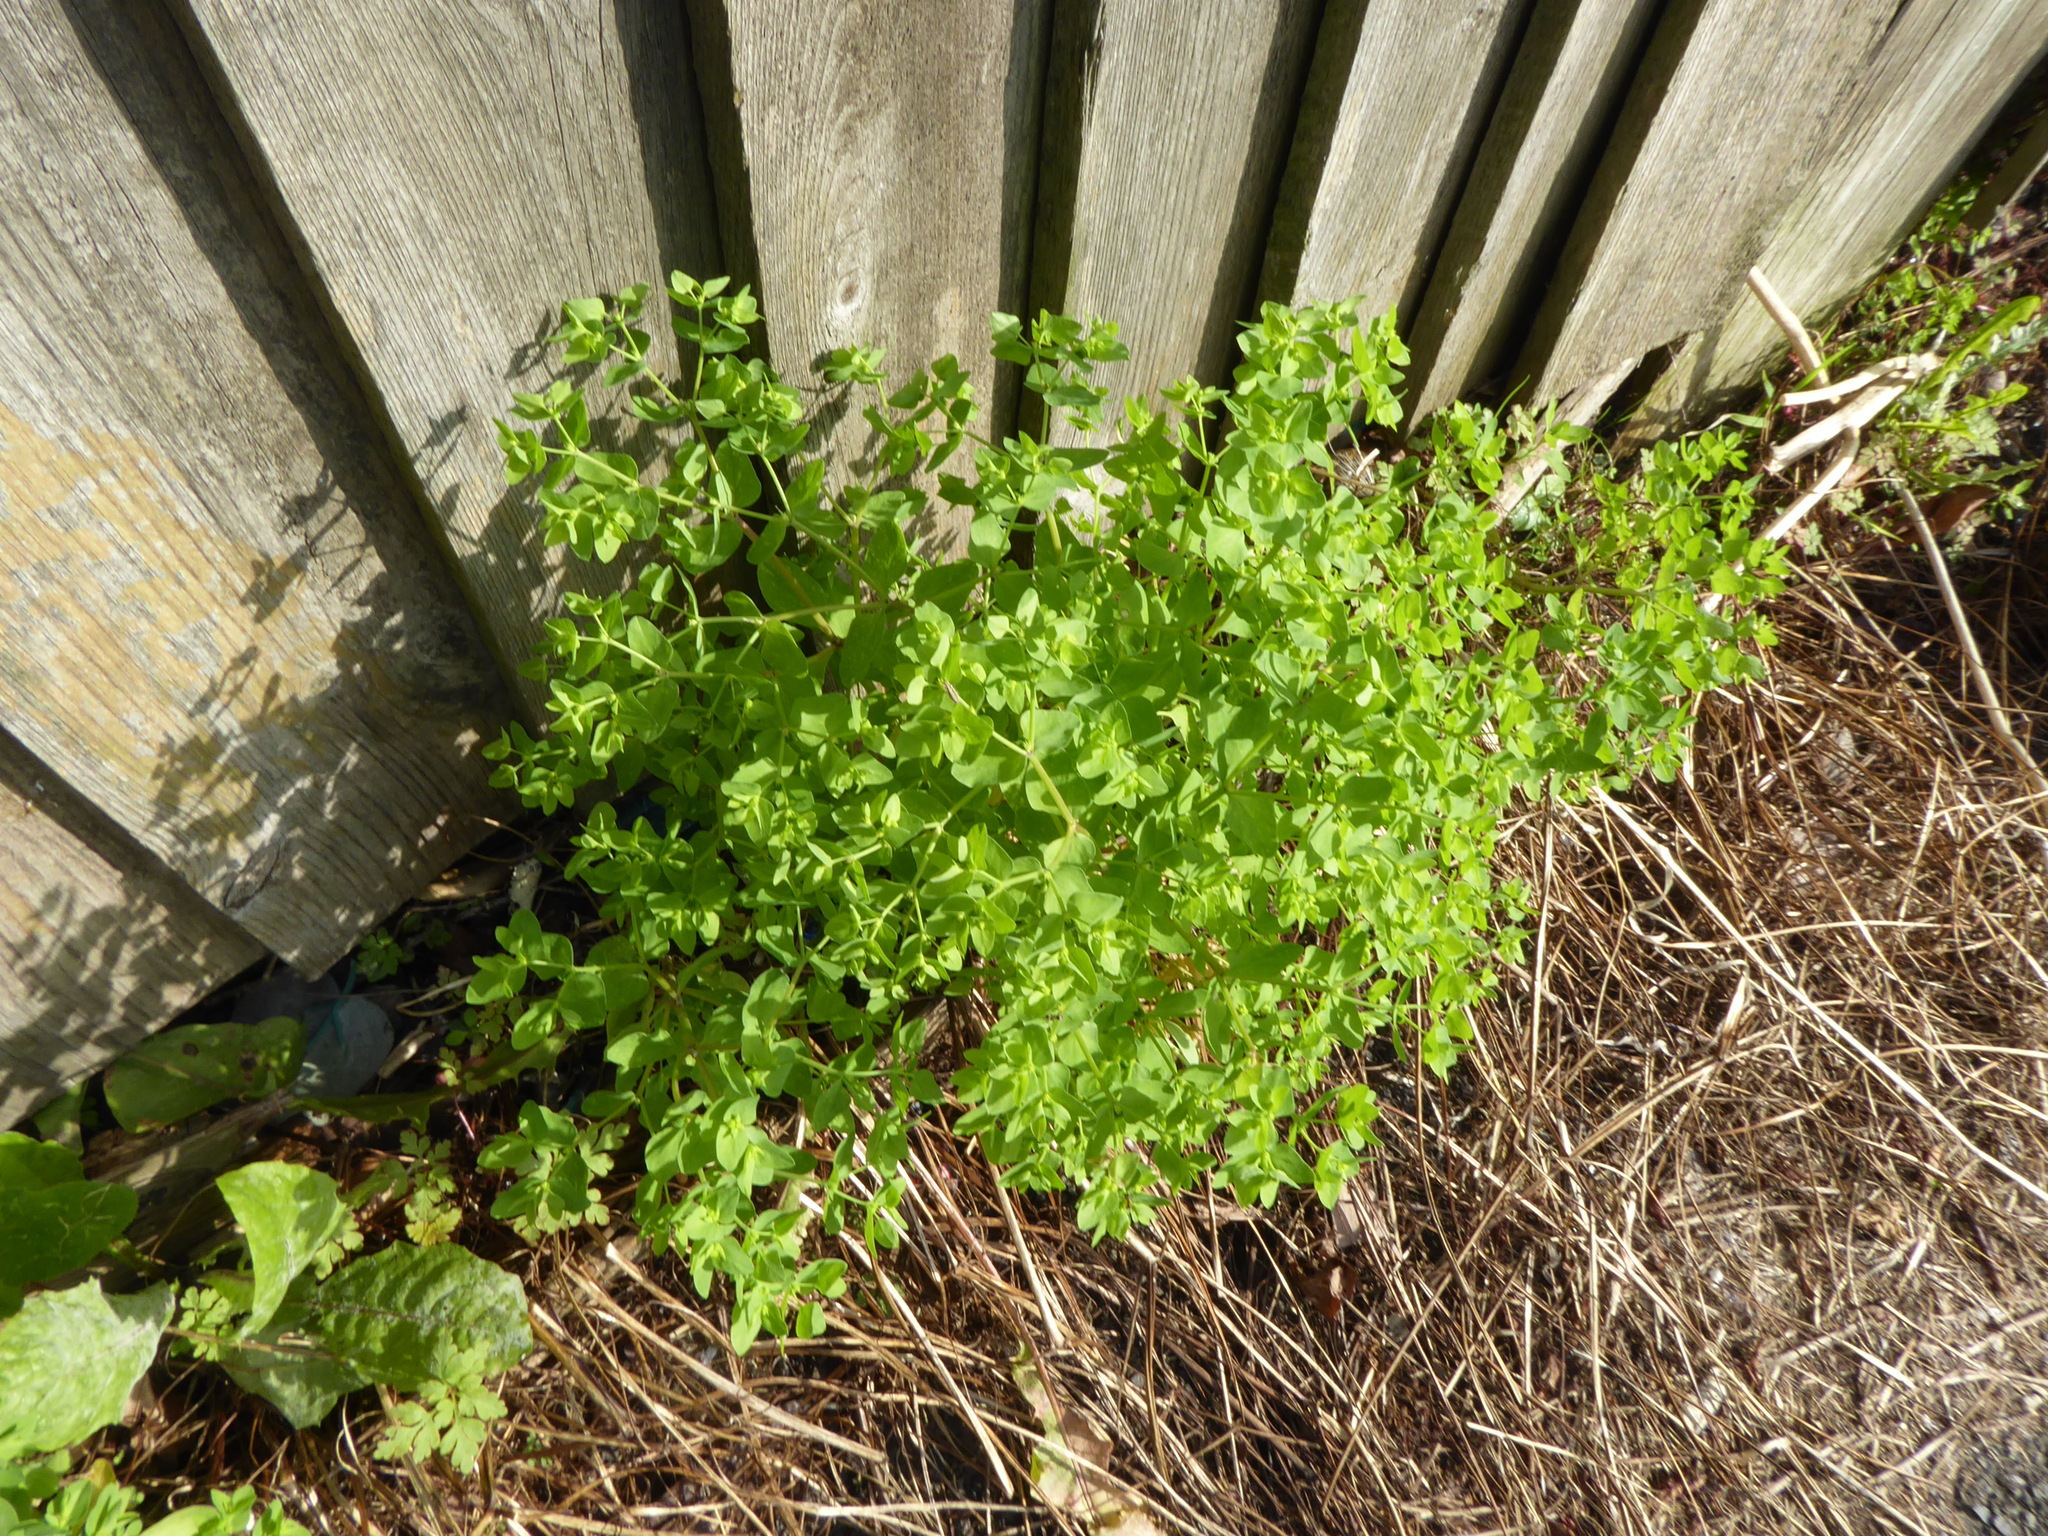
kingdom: Plantae
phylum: Tracheophyta
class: Magnoliopsida
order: Malpighiales
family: Euphorbiaceae
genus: Euphorbia
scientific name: Euphorbia peplus
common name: Petty spurge
